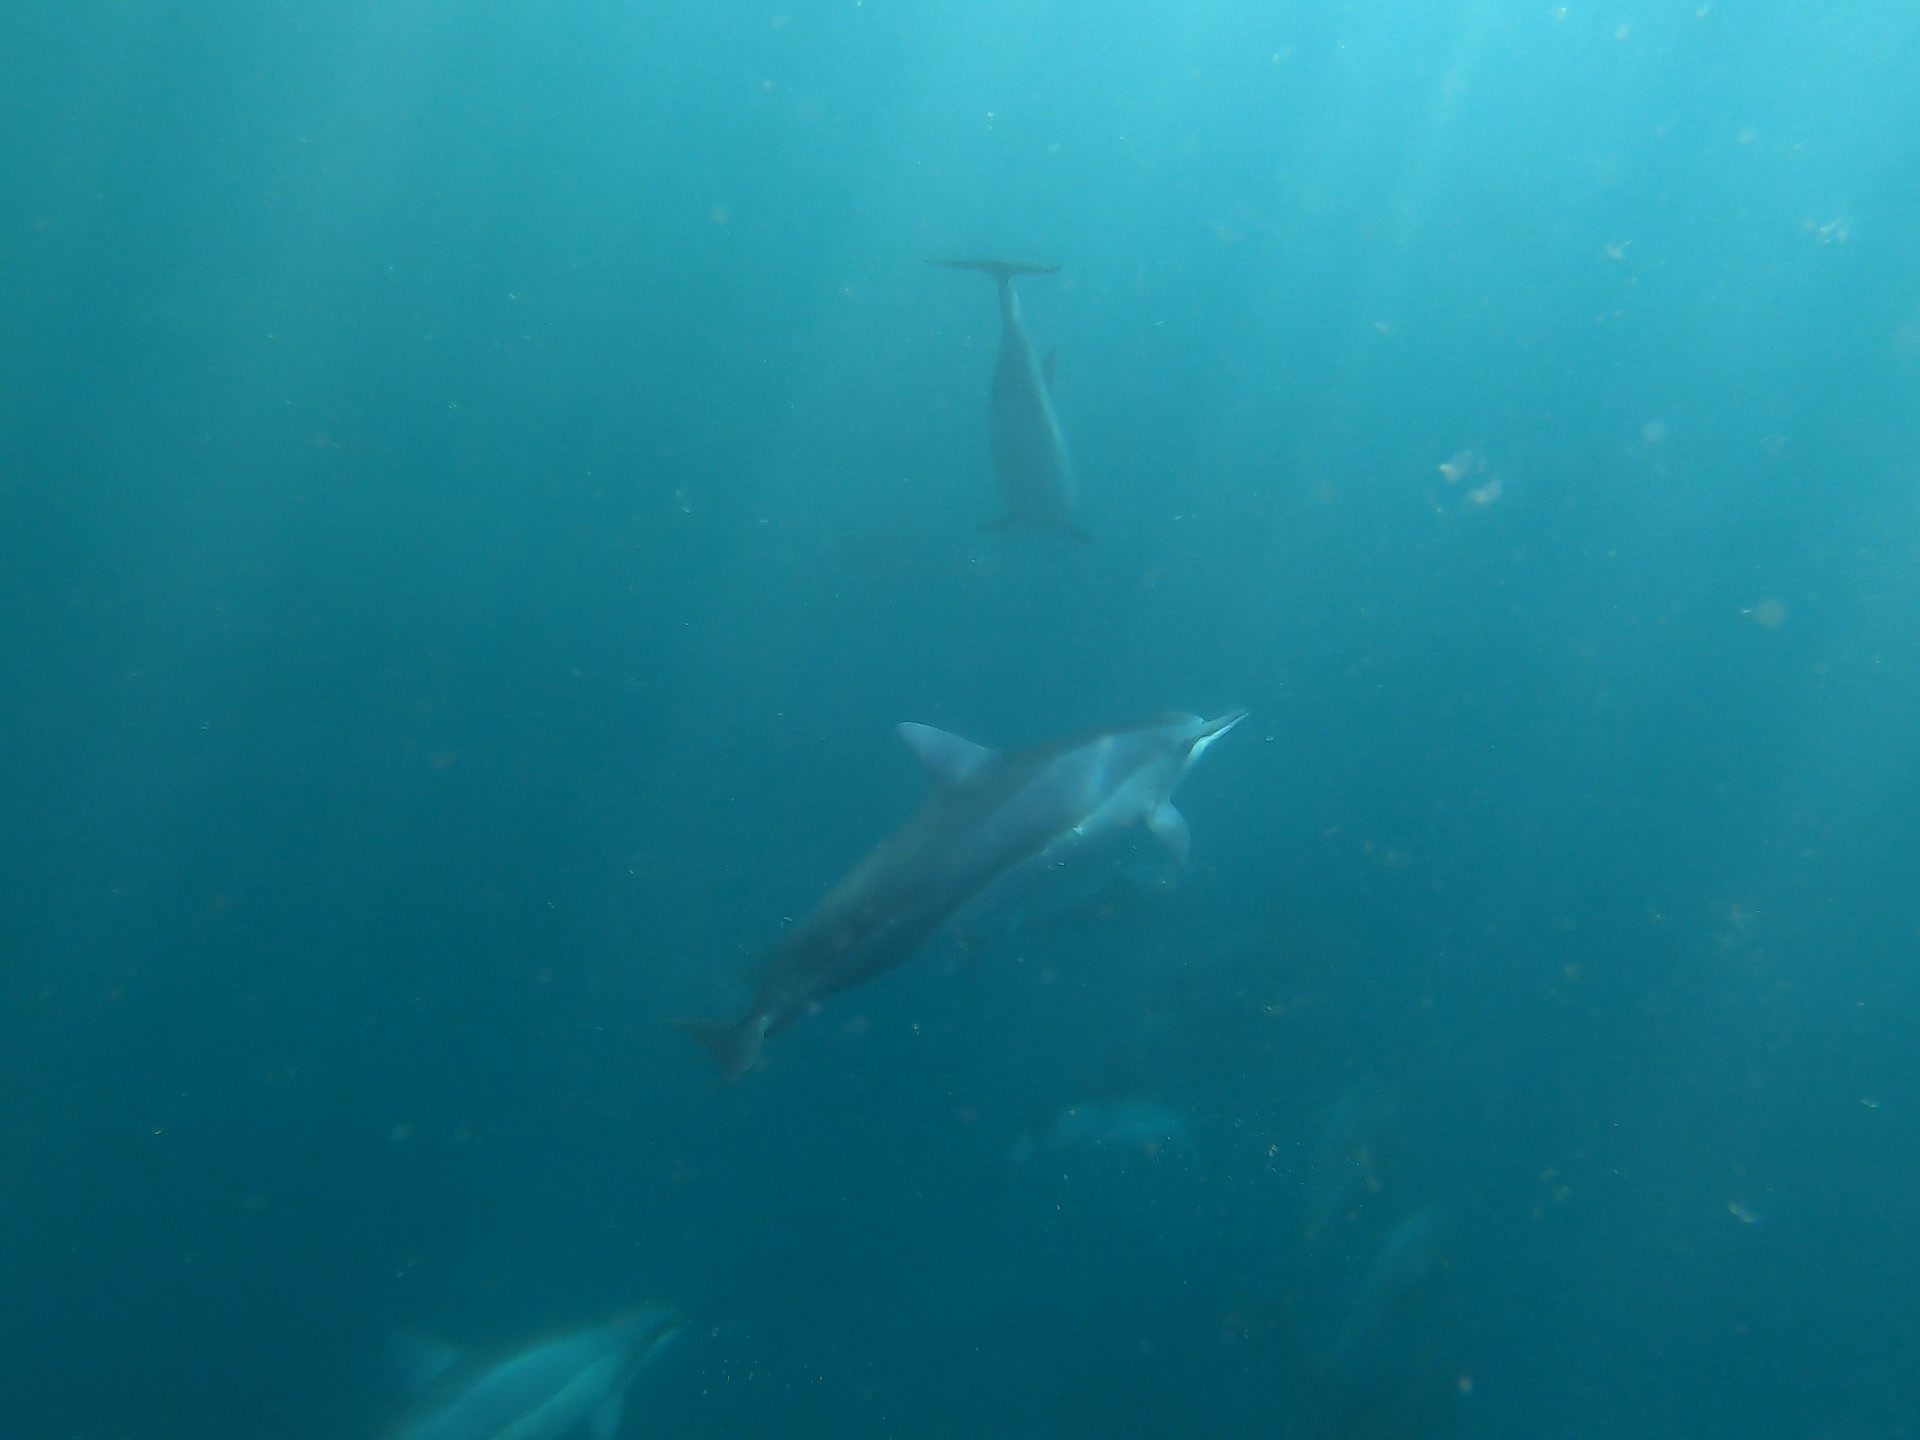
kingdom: Animalia
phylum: Chordata
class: Mammalia
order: Cetacea
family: Delphinidae
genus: Stenella
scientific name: Stenella longirostris
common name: Spinner dolphin
